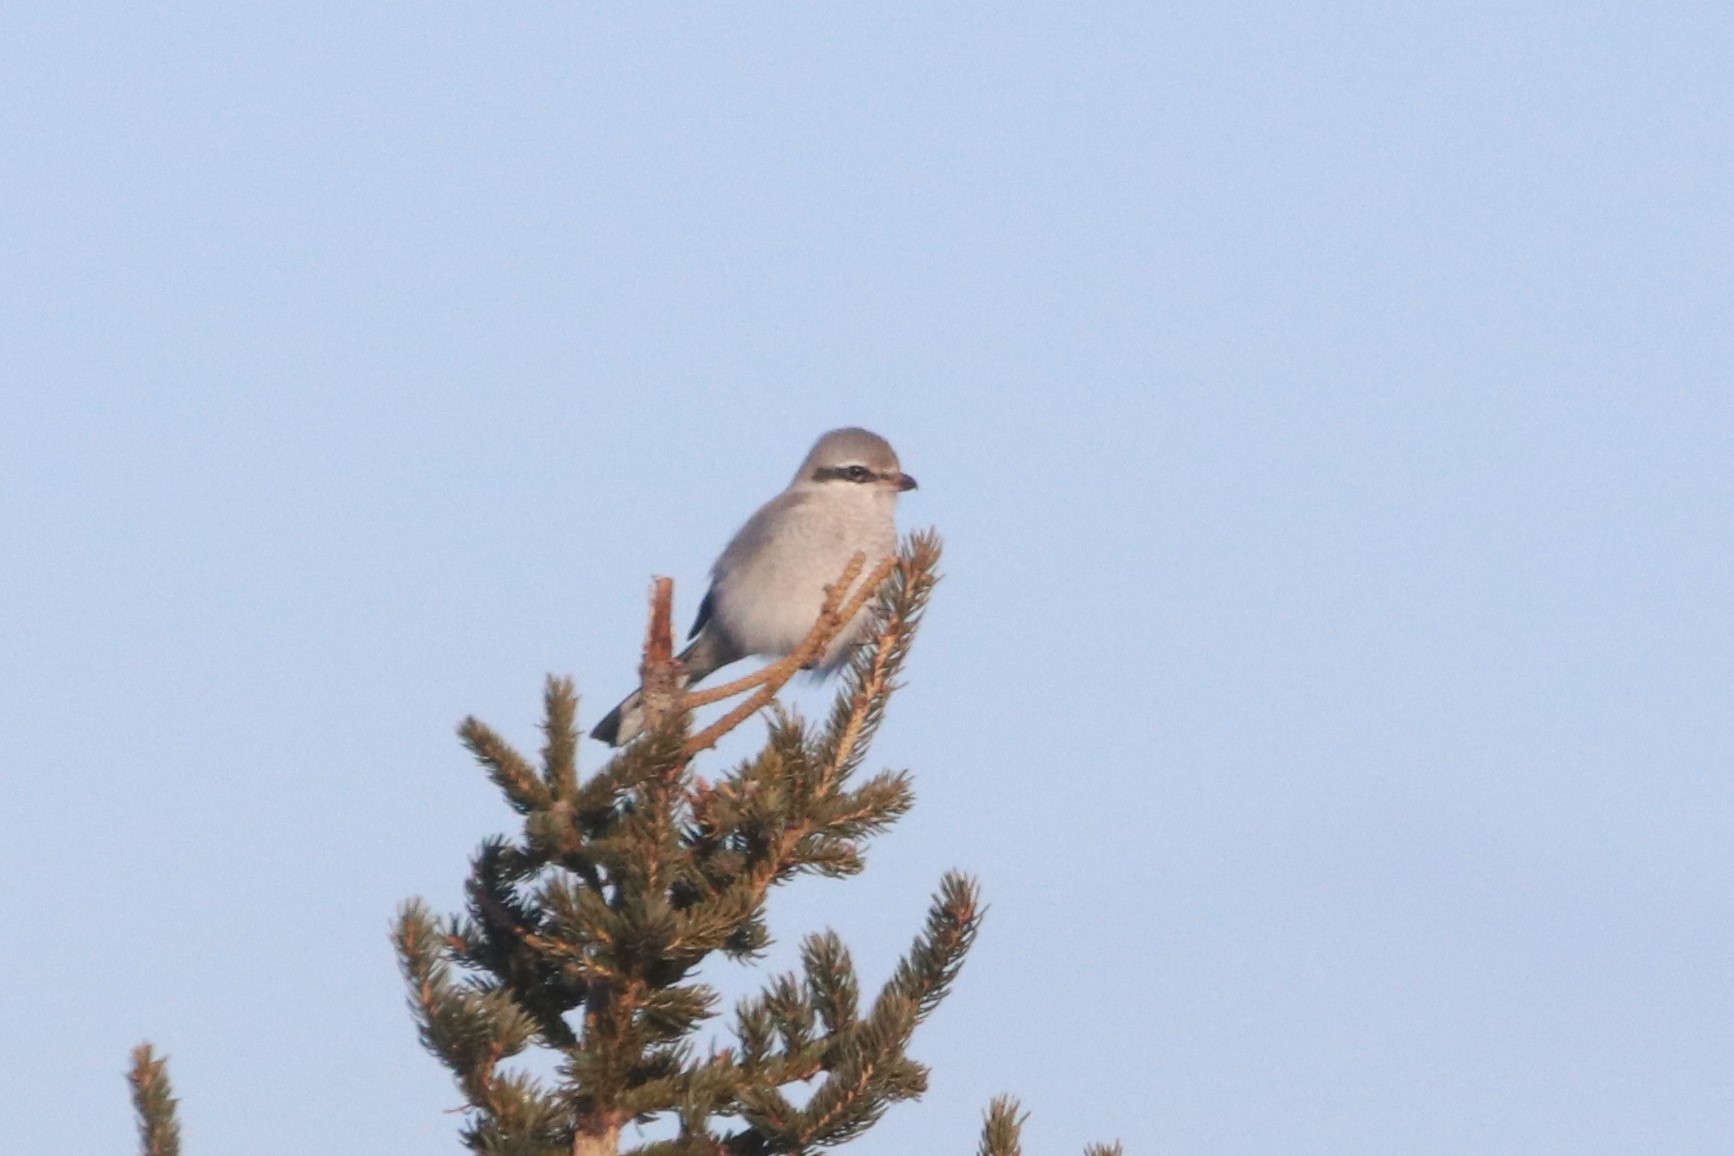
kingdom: Animalia
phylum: Chordata
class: Aves
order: Passeriformes
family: Laniidae
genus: Lanius
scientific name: Lanius borealis
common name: Northern shrike
